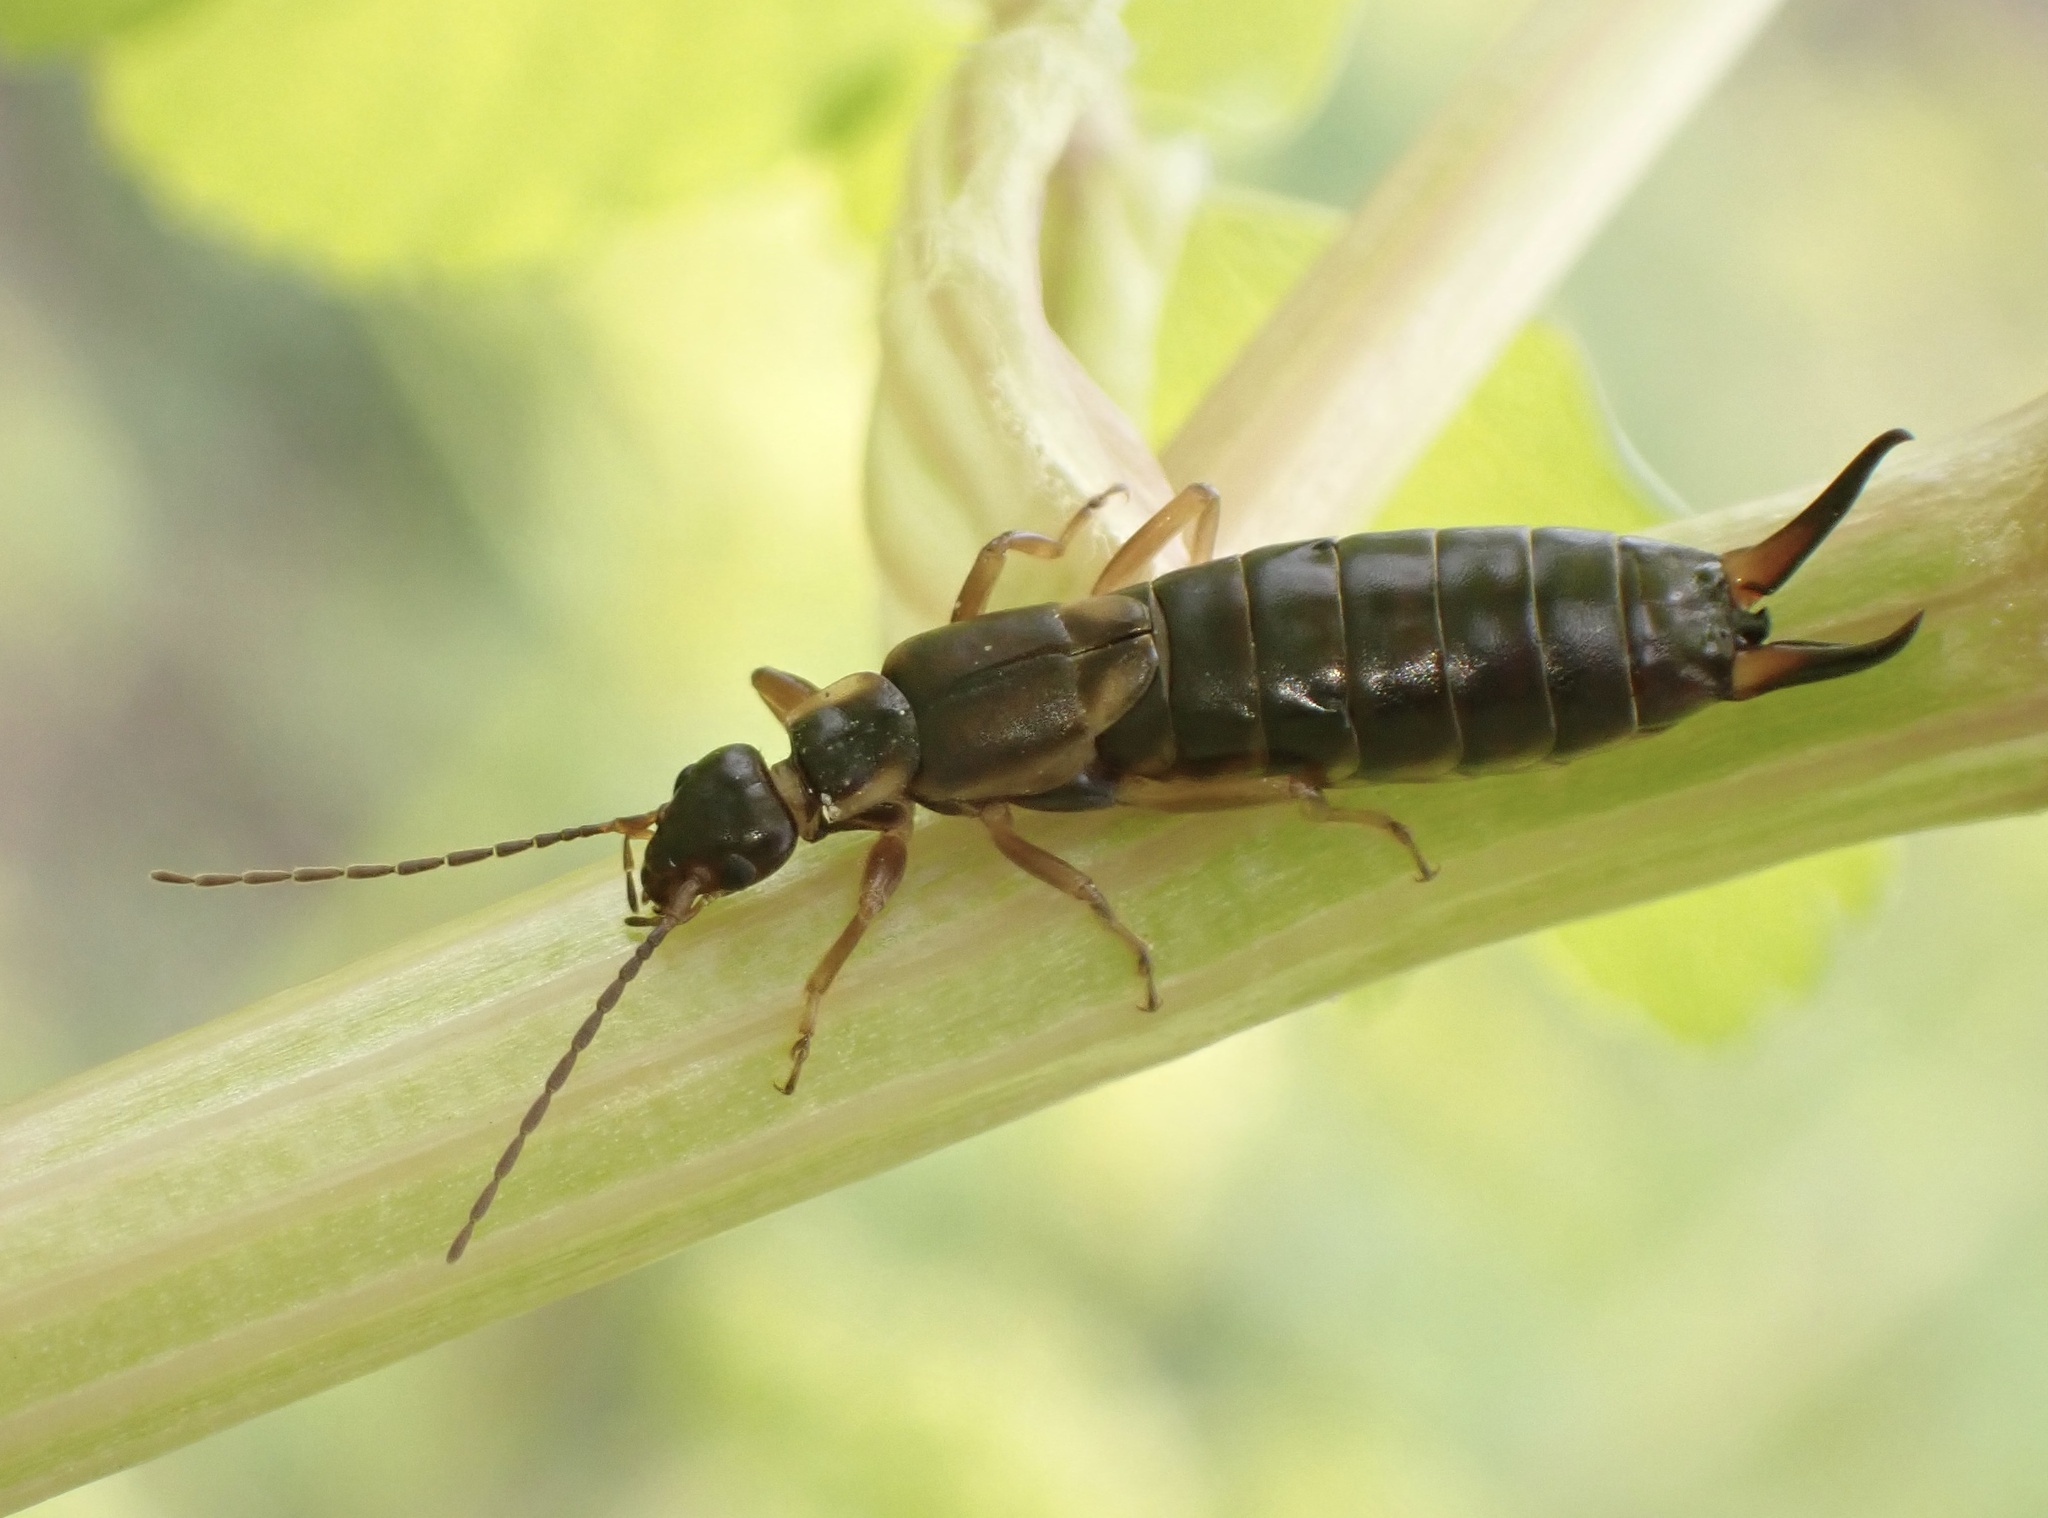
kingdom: Animalia
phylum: Arthropoda
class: Insecta
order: Dermaptera
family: Forficulidae
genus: Forficula
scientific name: Forficula
